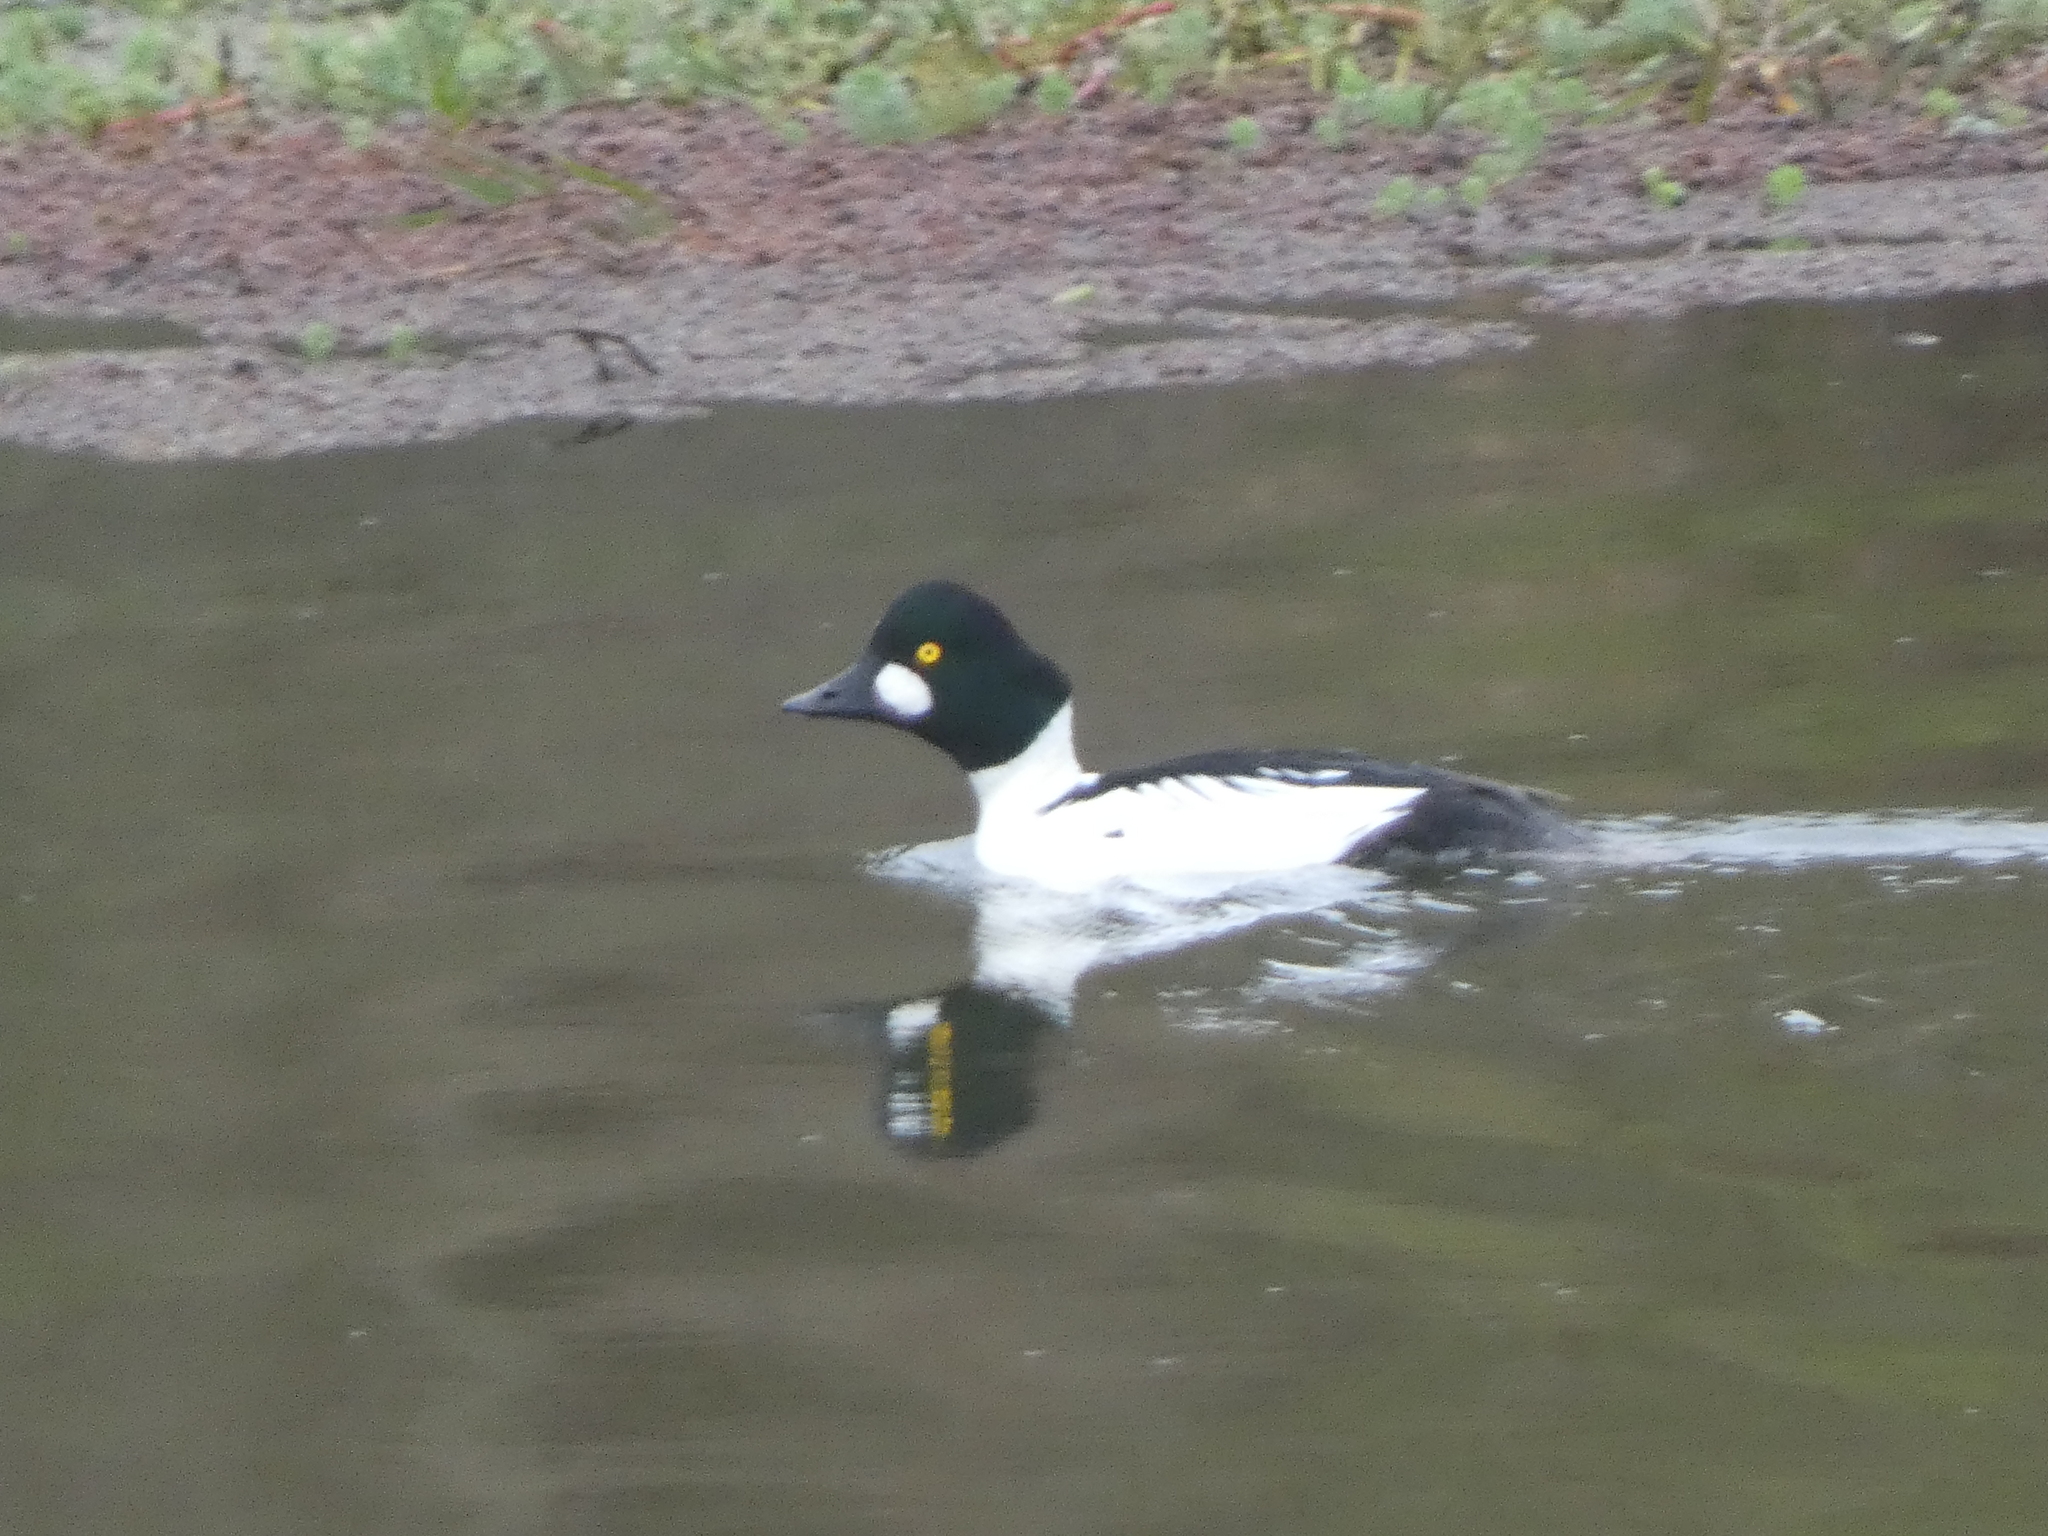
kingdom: Animalia
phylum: Chordata
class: Aves
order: Anseriformes
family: Anatidae
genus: Bucephala
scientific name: Bucephala clangula
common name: Common goldeneye
